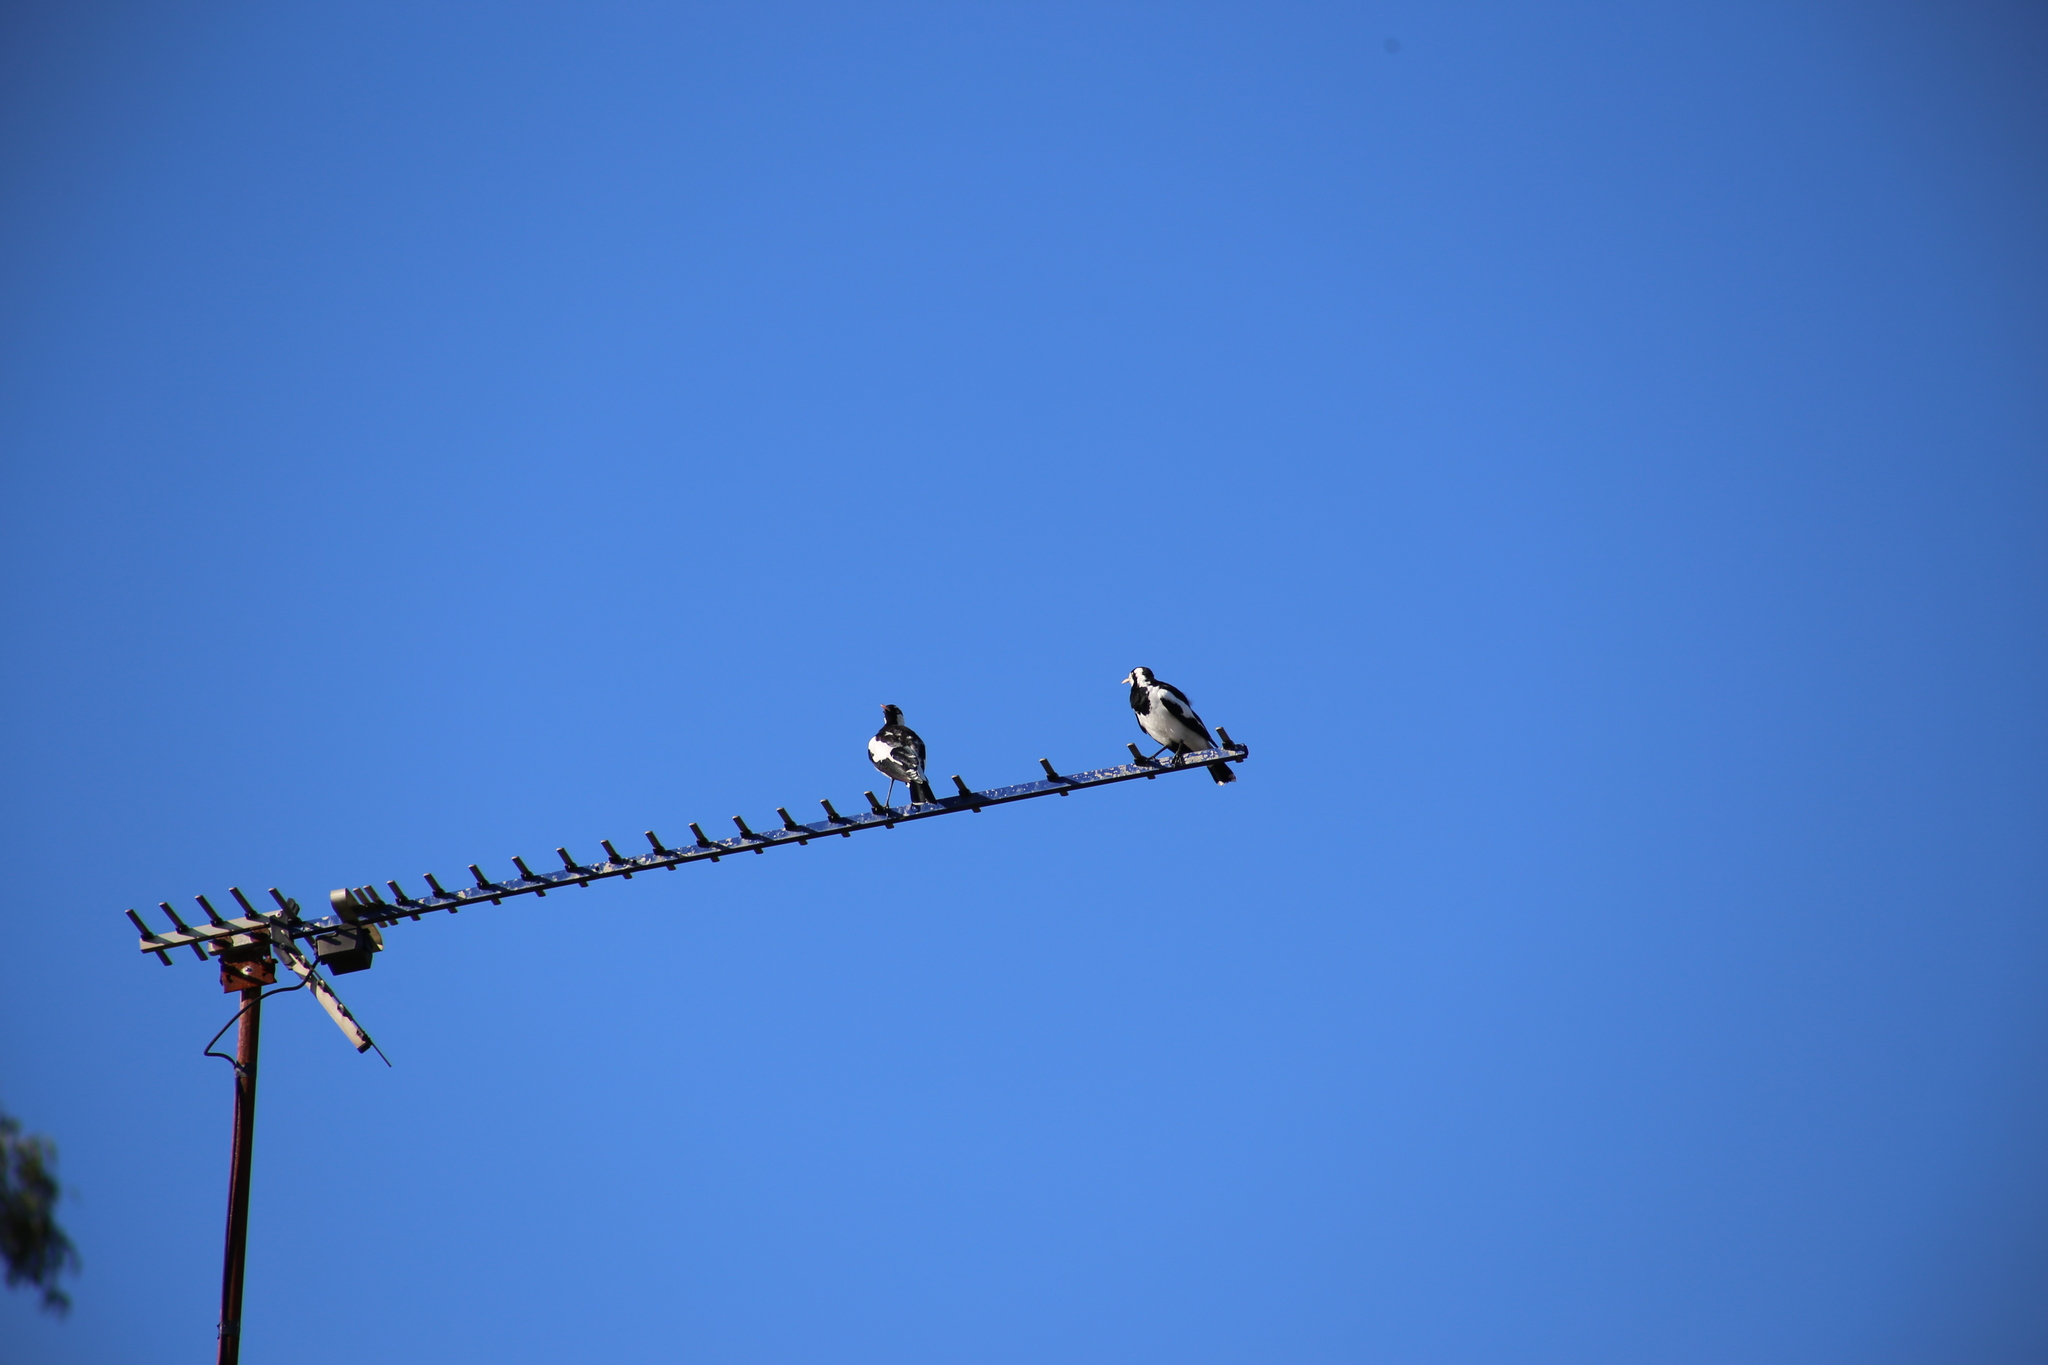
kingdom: Animalia
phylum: Chordata
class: Aves
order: Passeriformes
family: Monarchidae
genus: Grallina
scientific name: Grallina cyanoleuca
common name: Magpie-lark
